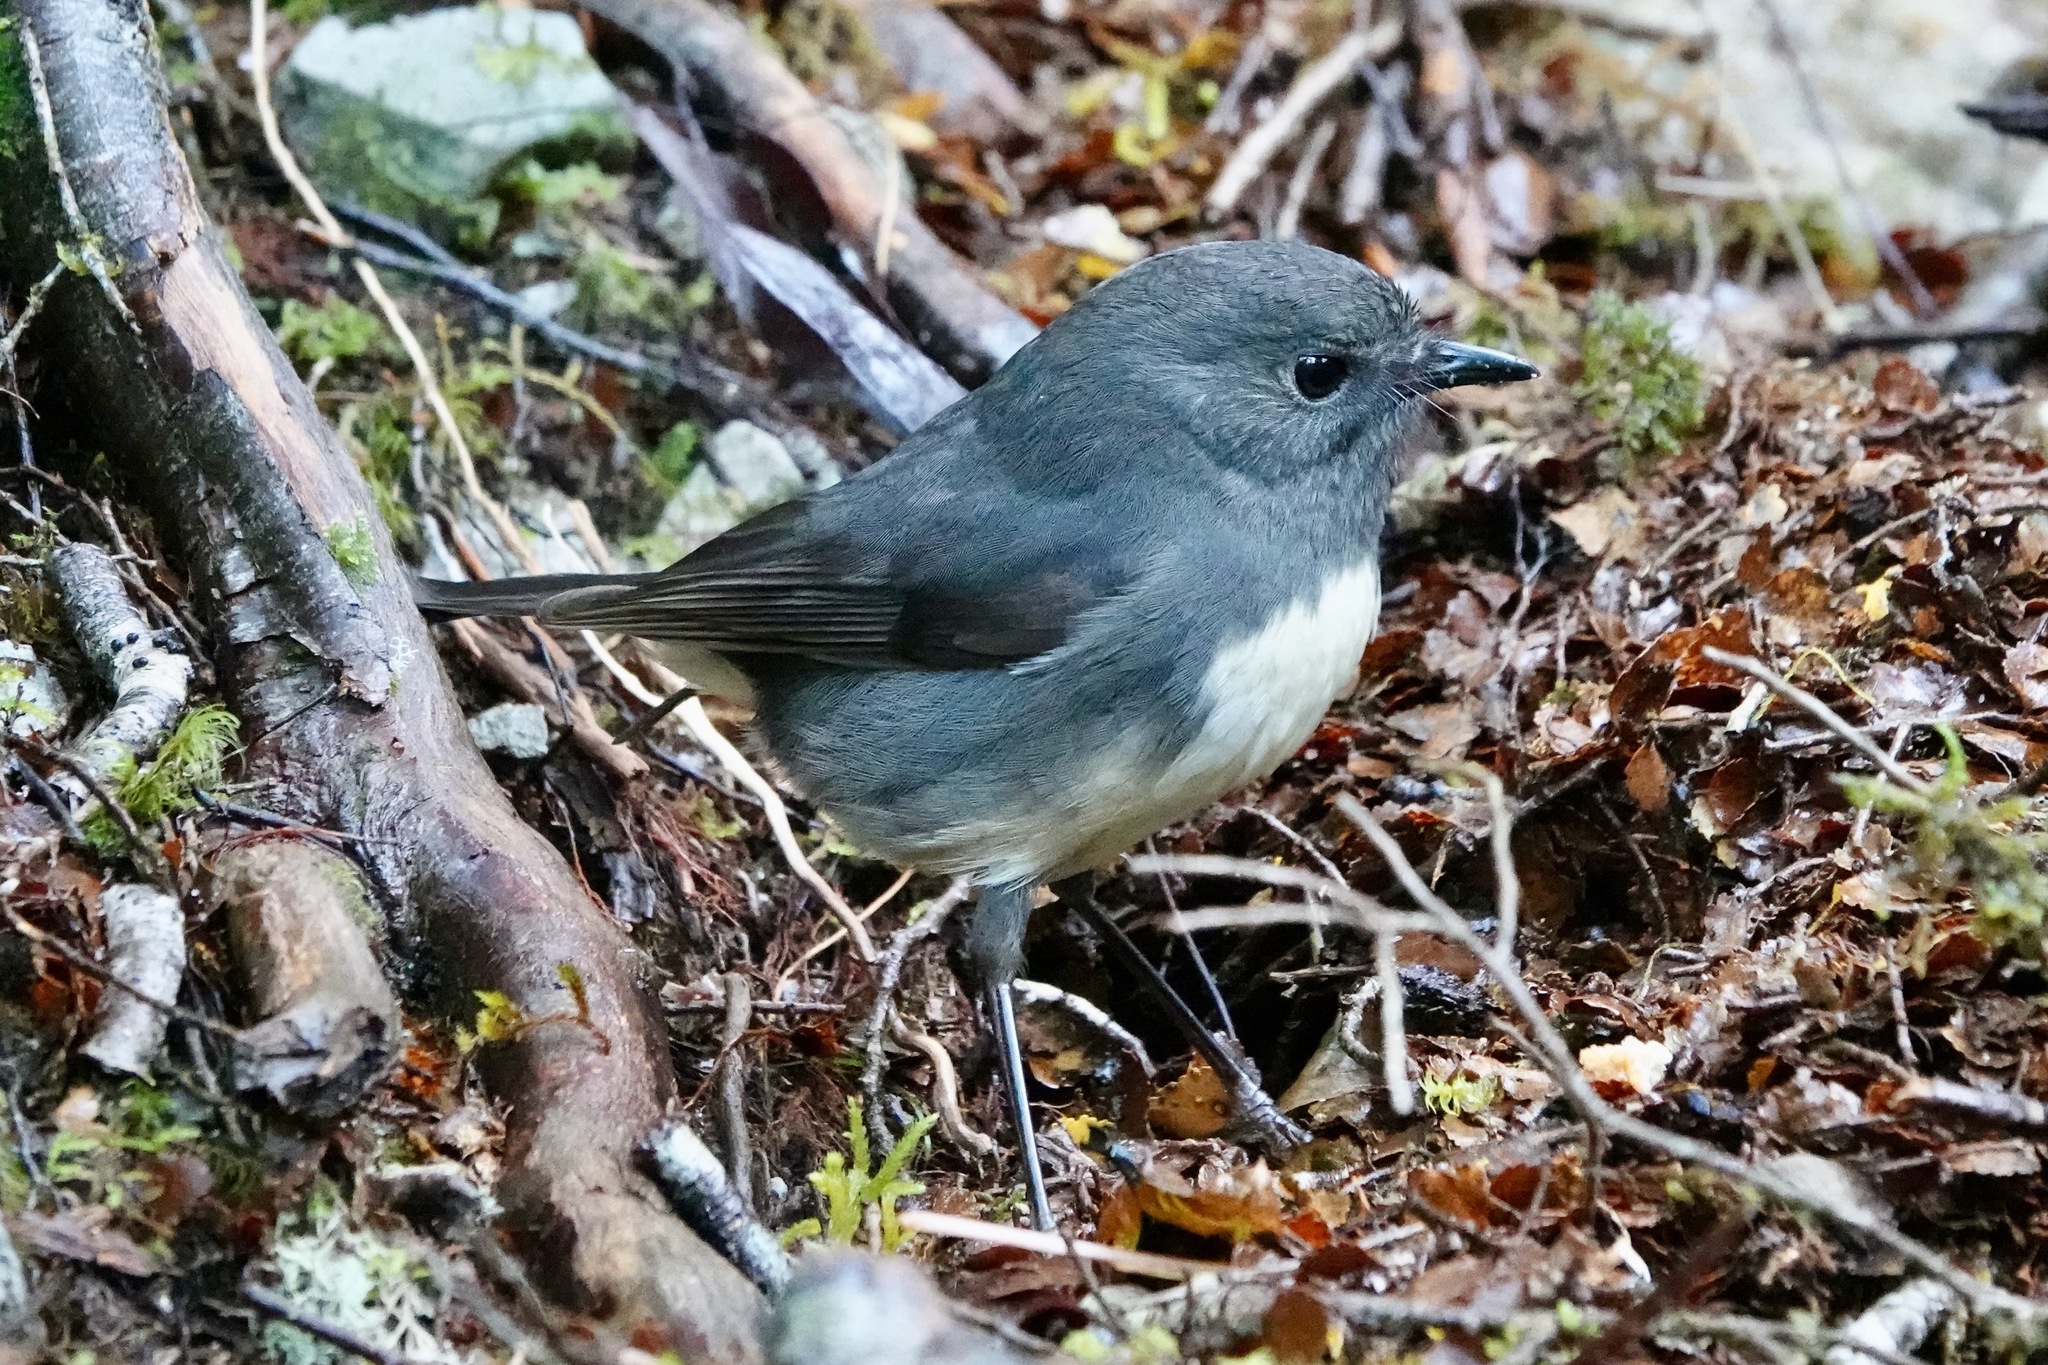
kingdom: Animalia
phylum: Chordata
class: Aves
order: Passeriformes
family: Petroicidae
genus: Petroica
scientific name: Petroica australis
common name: New zealand robin
